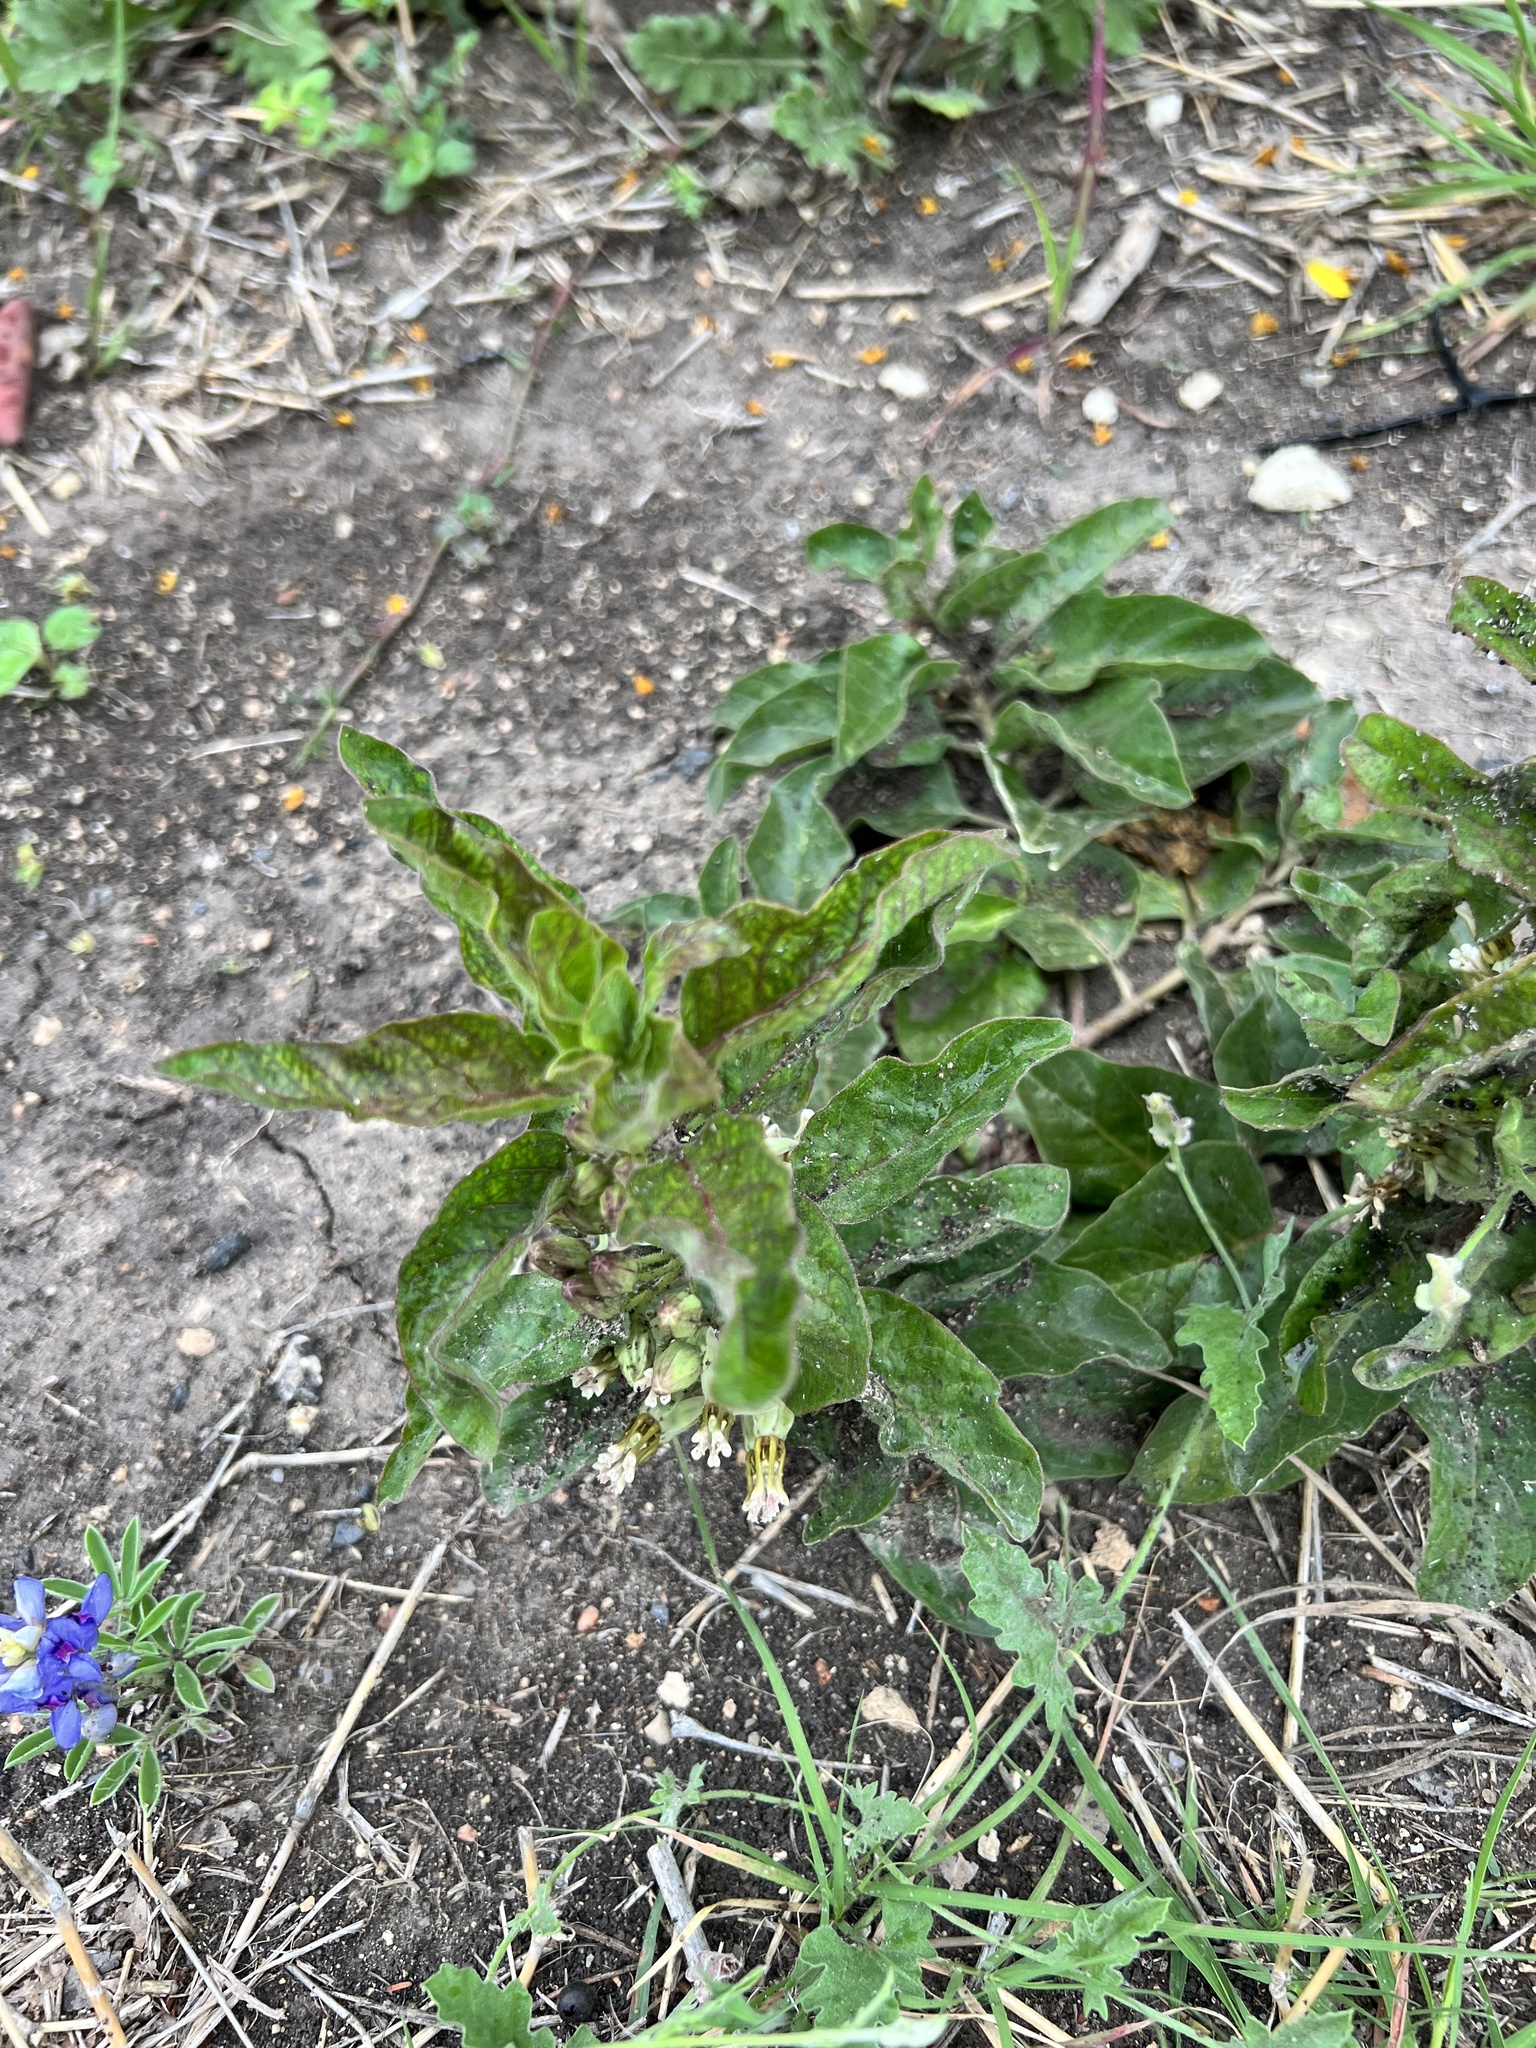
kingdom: Plantae
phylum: Tracheophyta
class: Magnoliopsida
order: Gentianales
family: Apocynaceae
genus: Asclepias
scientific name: Asclepias oenotheroides
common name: Zizotes milkweed
